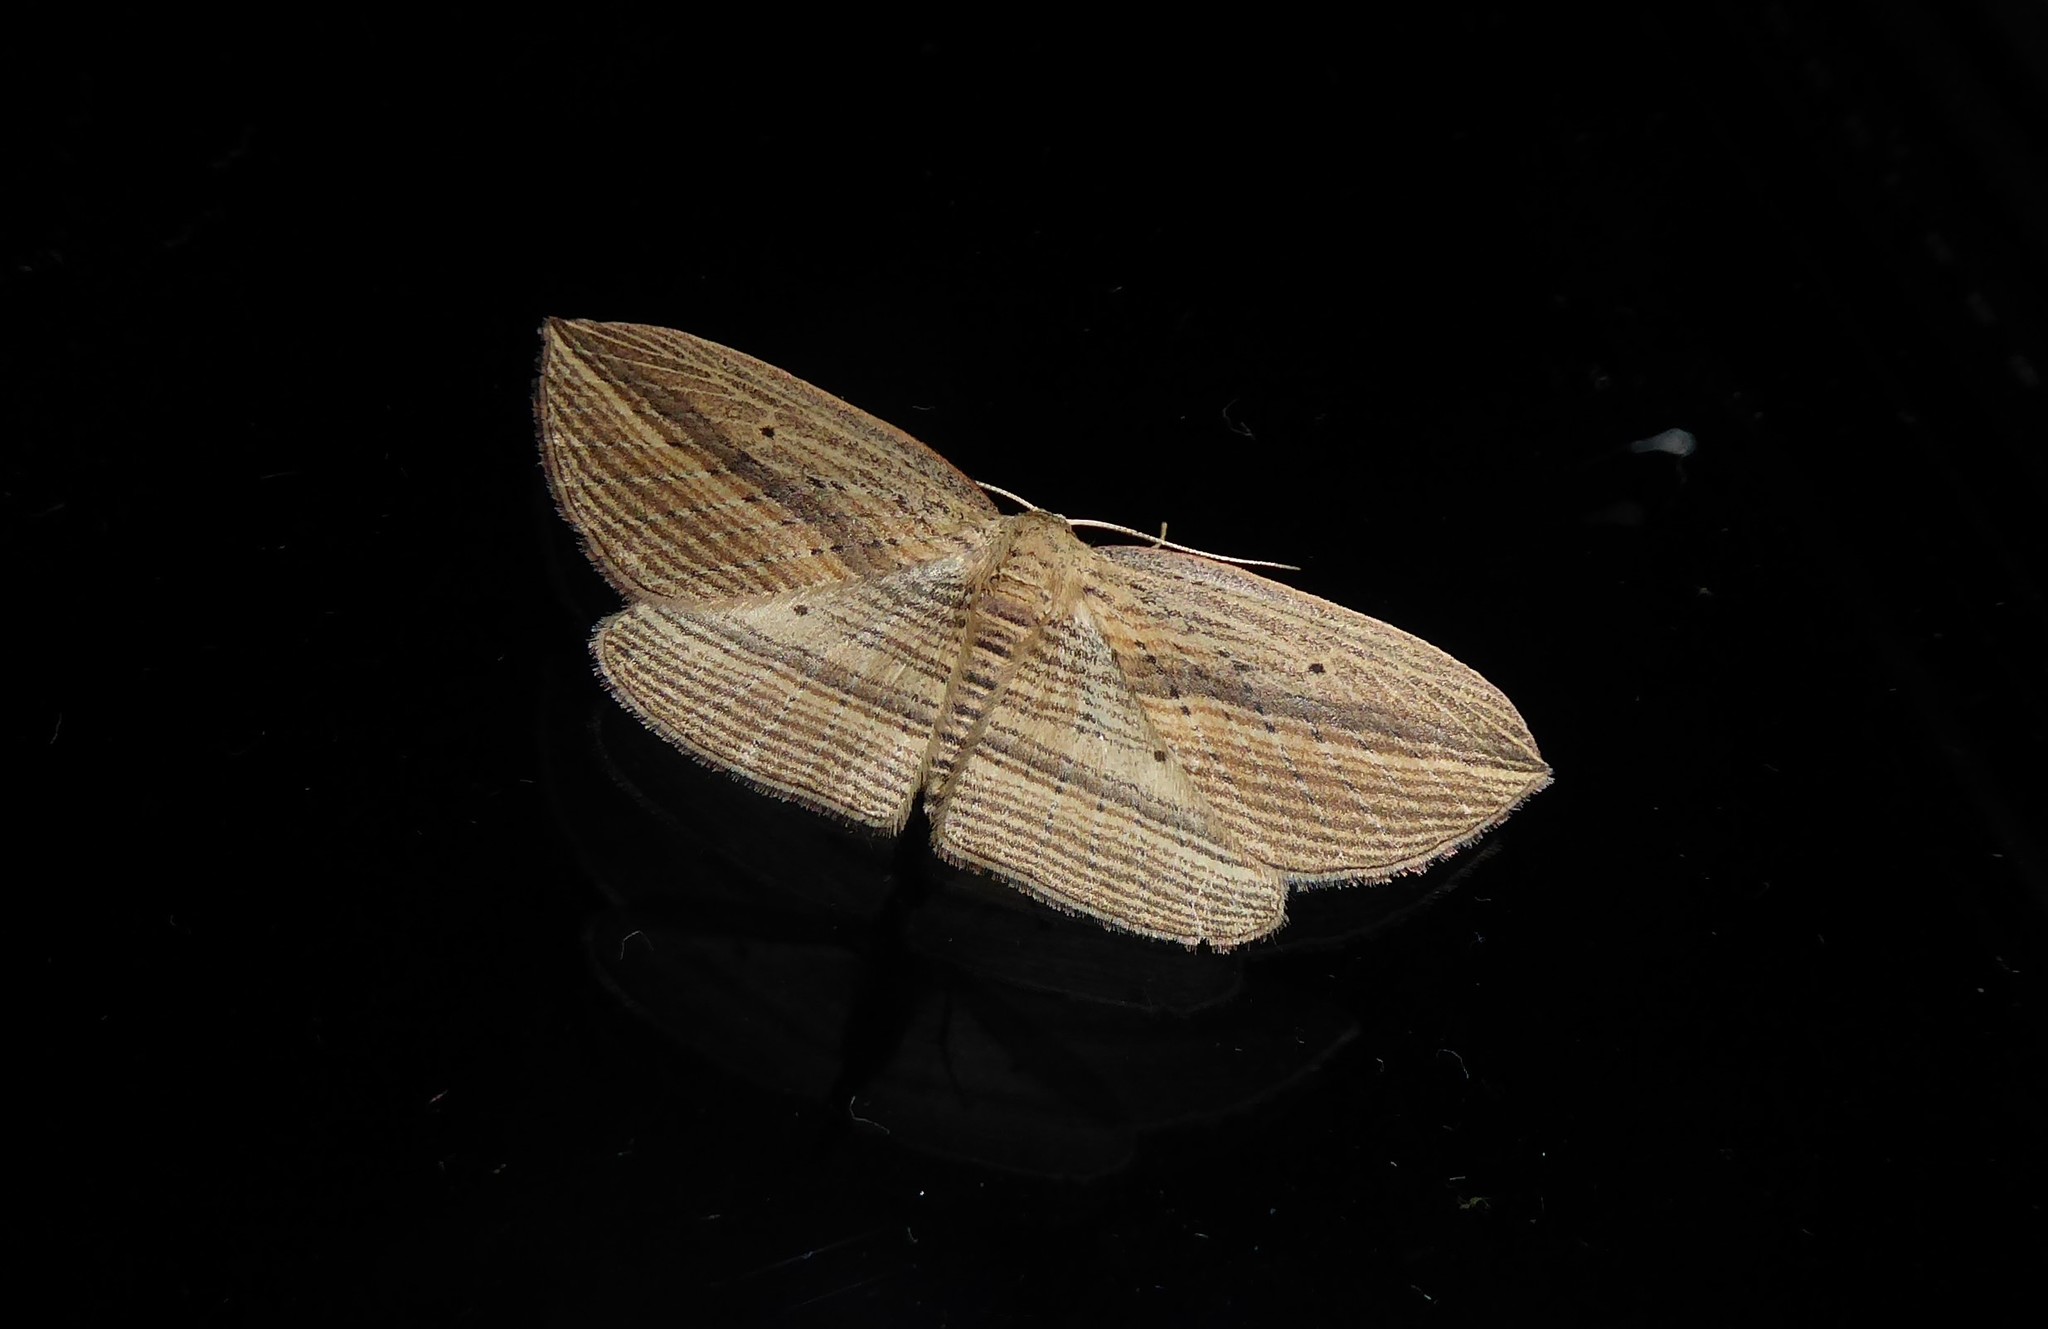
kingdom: Animalia
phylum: Arthropoda
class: Insecta
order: Lepidoptera
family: Geometridae
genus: Epiphryne
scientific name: Epiphryne verriculata
